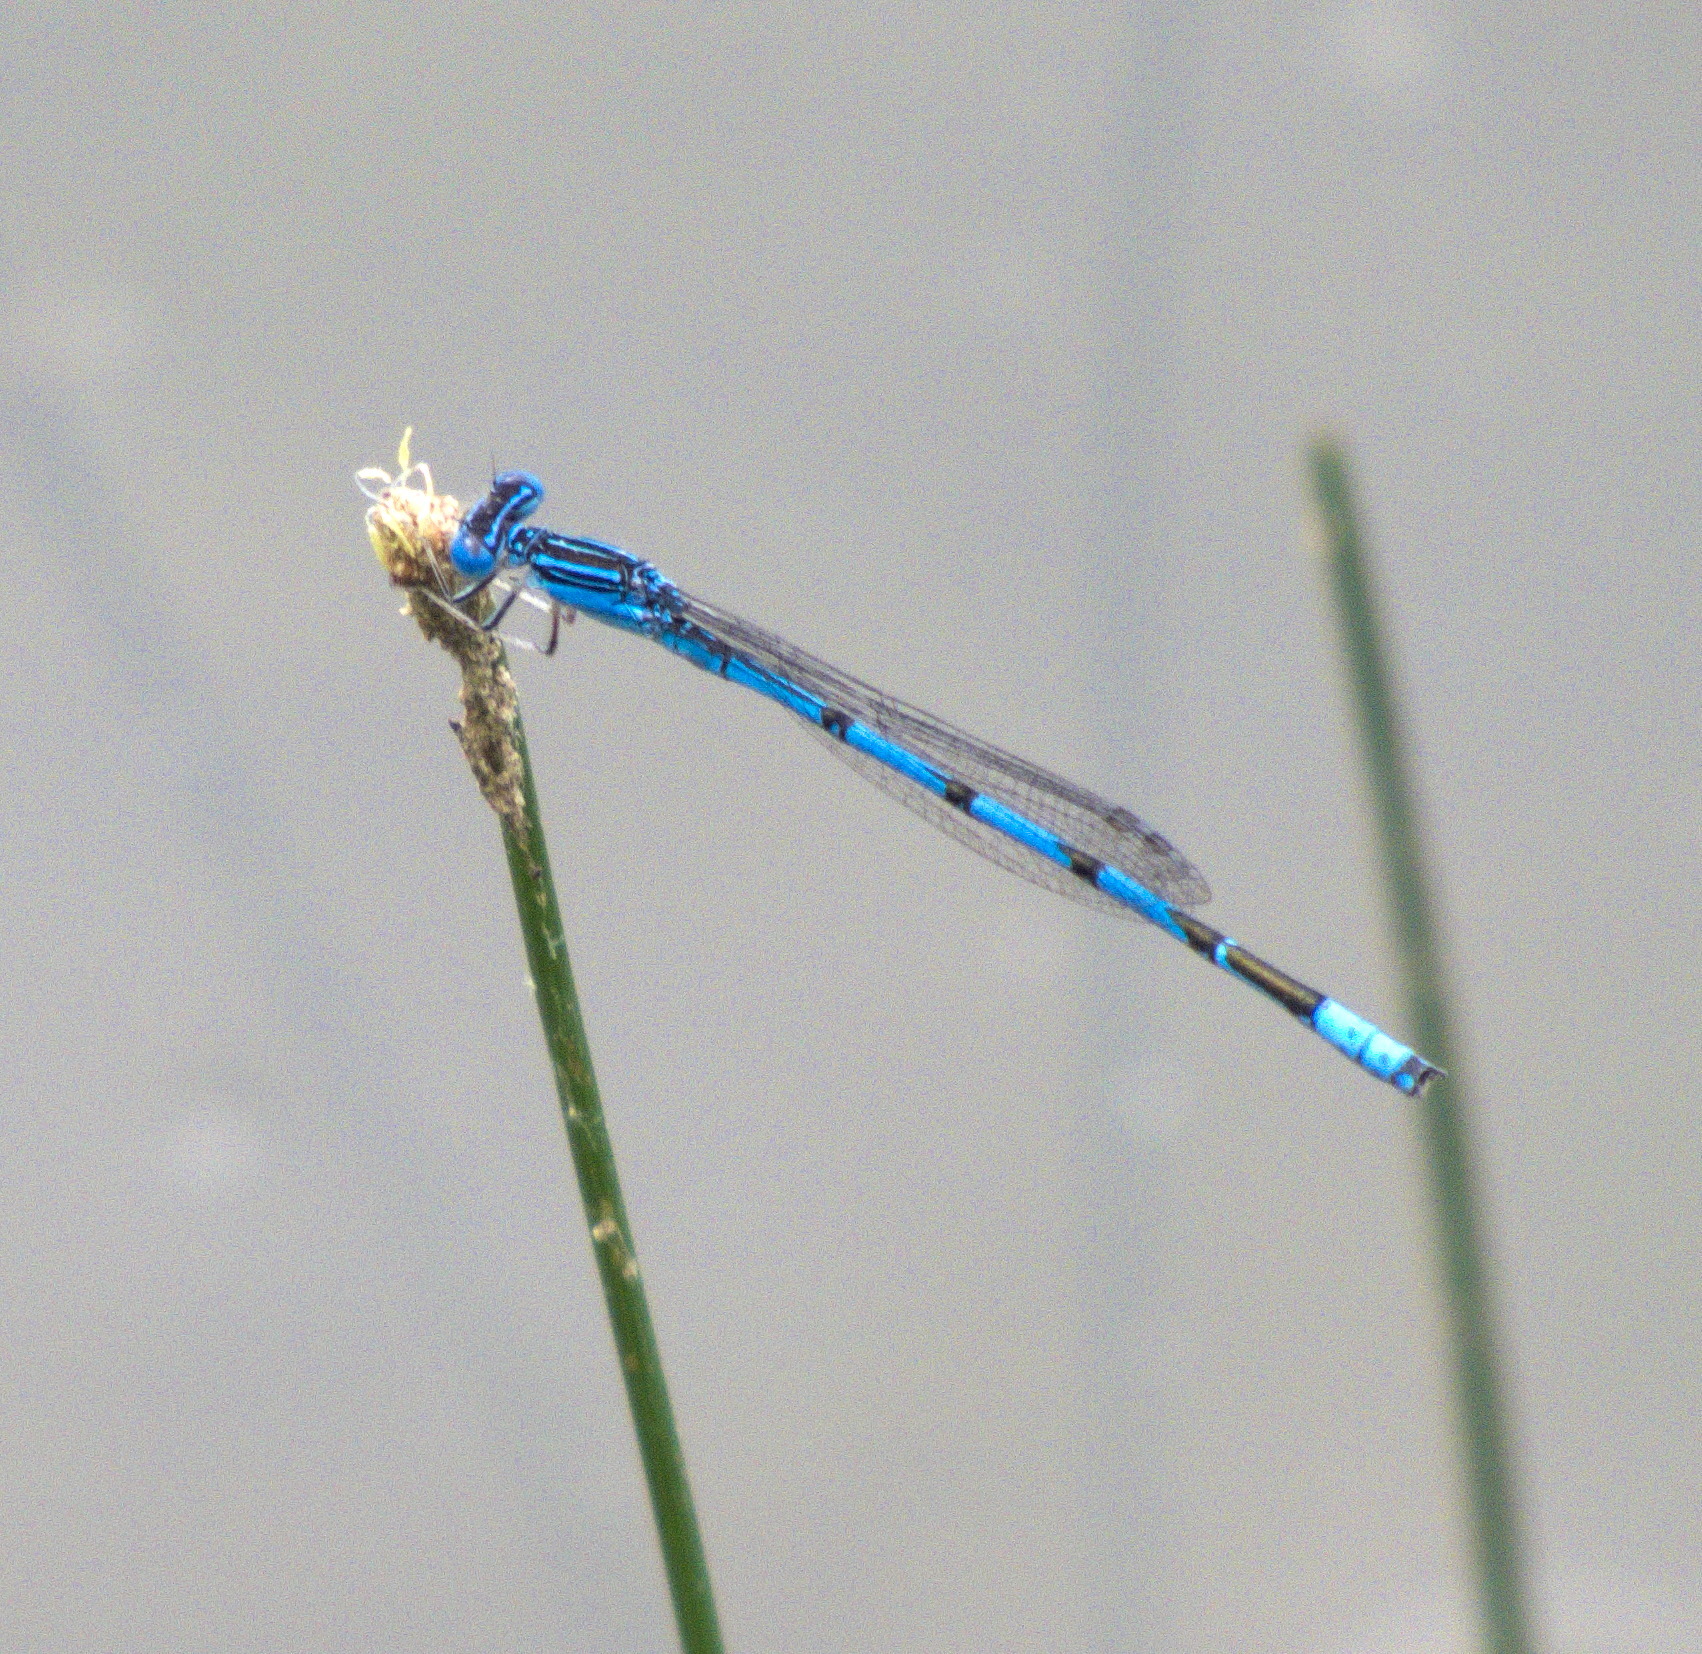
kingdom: Animalia
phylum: Arthropoda
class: Insecta
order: Odonata
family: Coenagrionidae
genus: Enallagma
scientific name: Enallagma basidens
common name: Double-striped bluet
